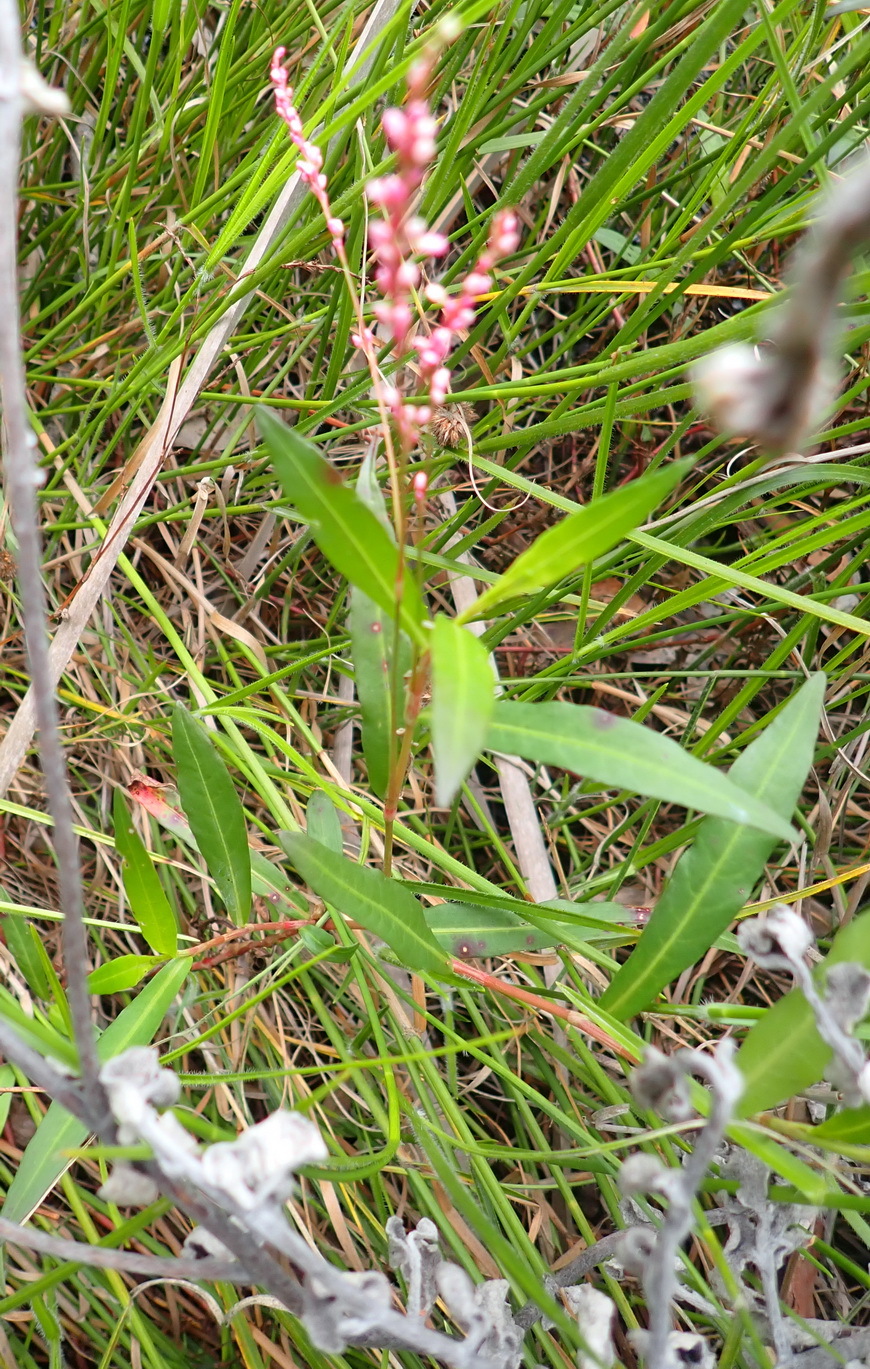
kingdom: Plantae
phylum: Tracheophyta
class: Magnoliopsida
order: Caryophyllales
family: Polygonaceae
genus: Persicaria
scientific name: Persicaria decipiens
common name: Willow-weed
